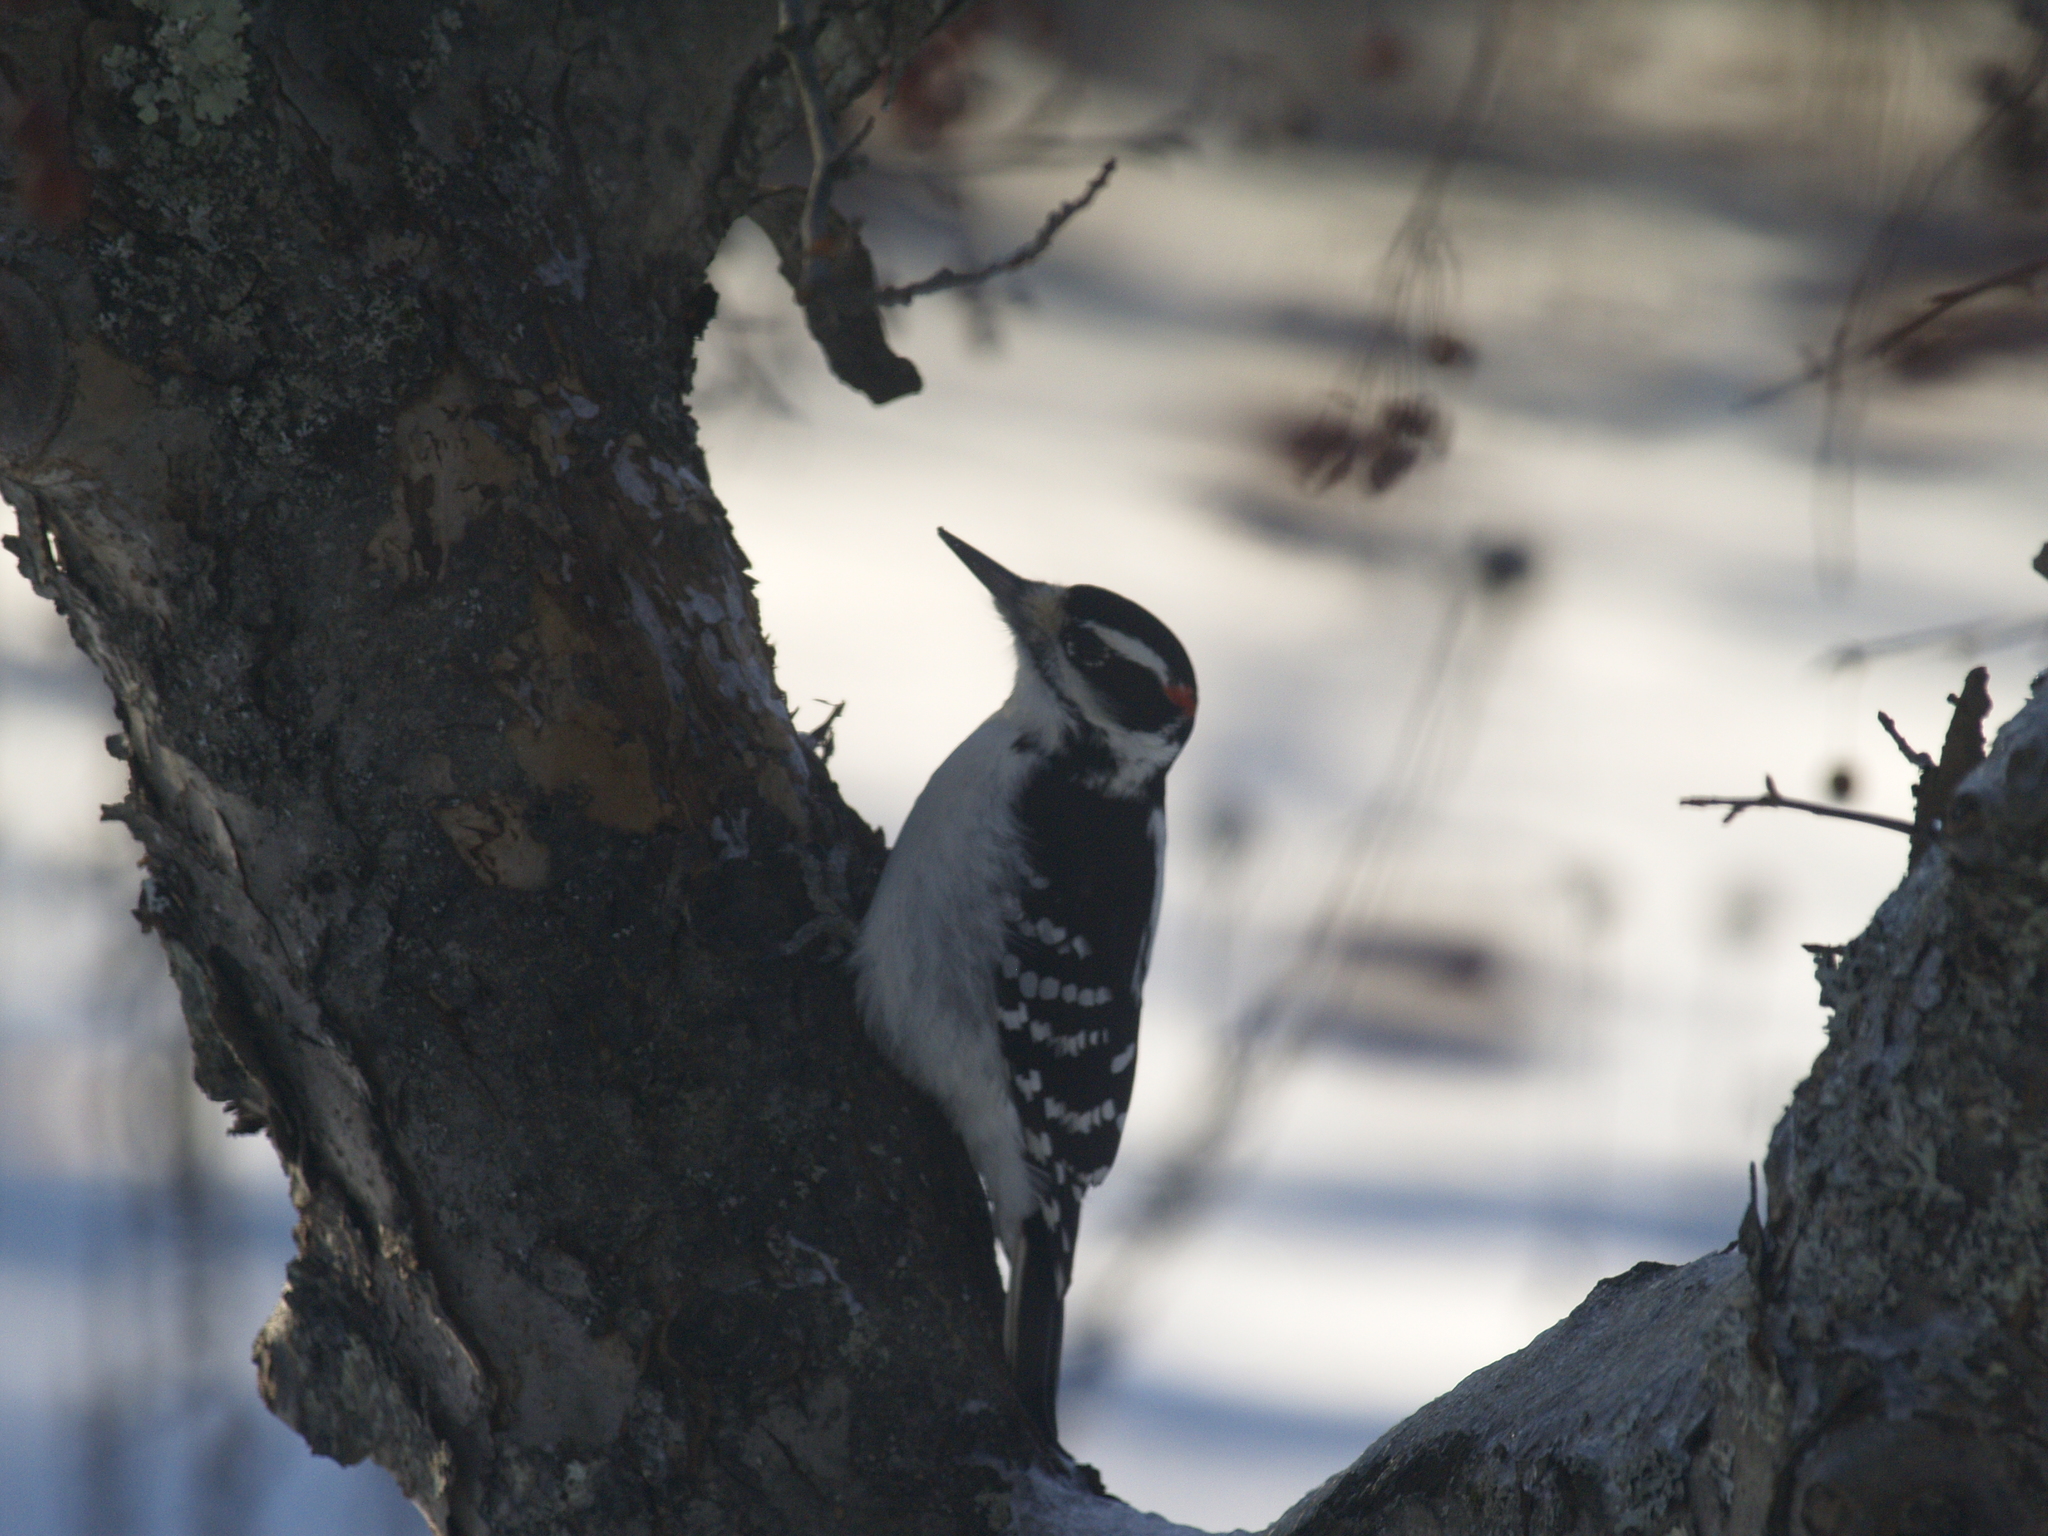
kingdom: Animalia
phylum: Chordata
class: Aves
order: Piciformes
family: Picidae
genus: Dryobates
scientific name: Dryobates pubescens
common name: Downy woodpecker
